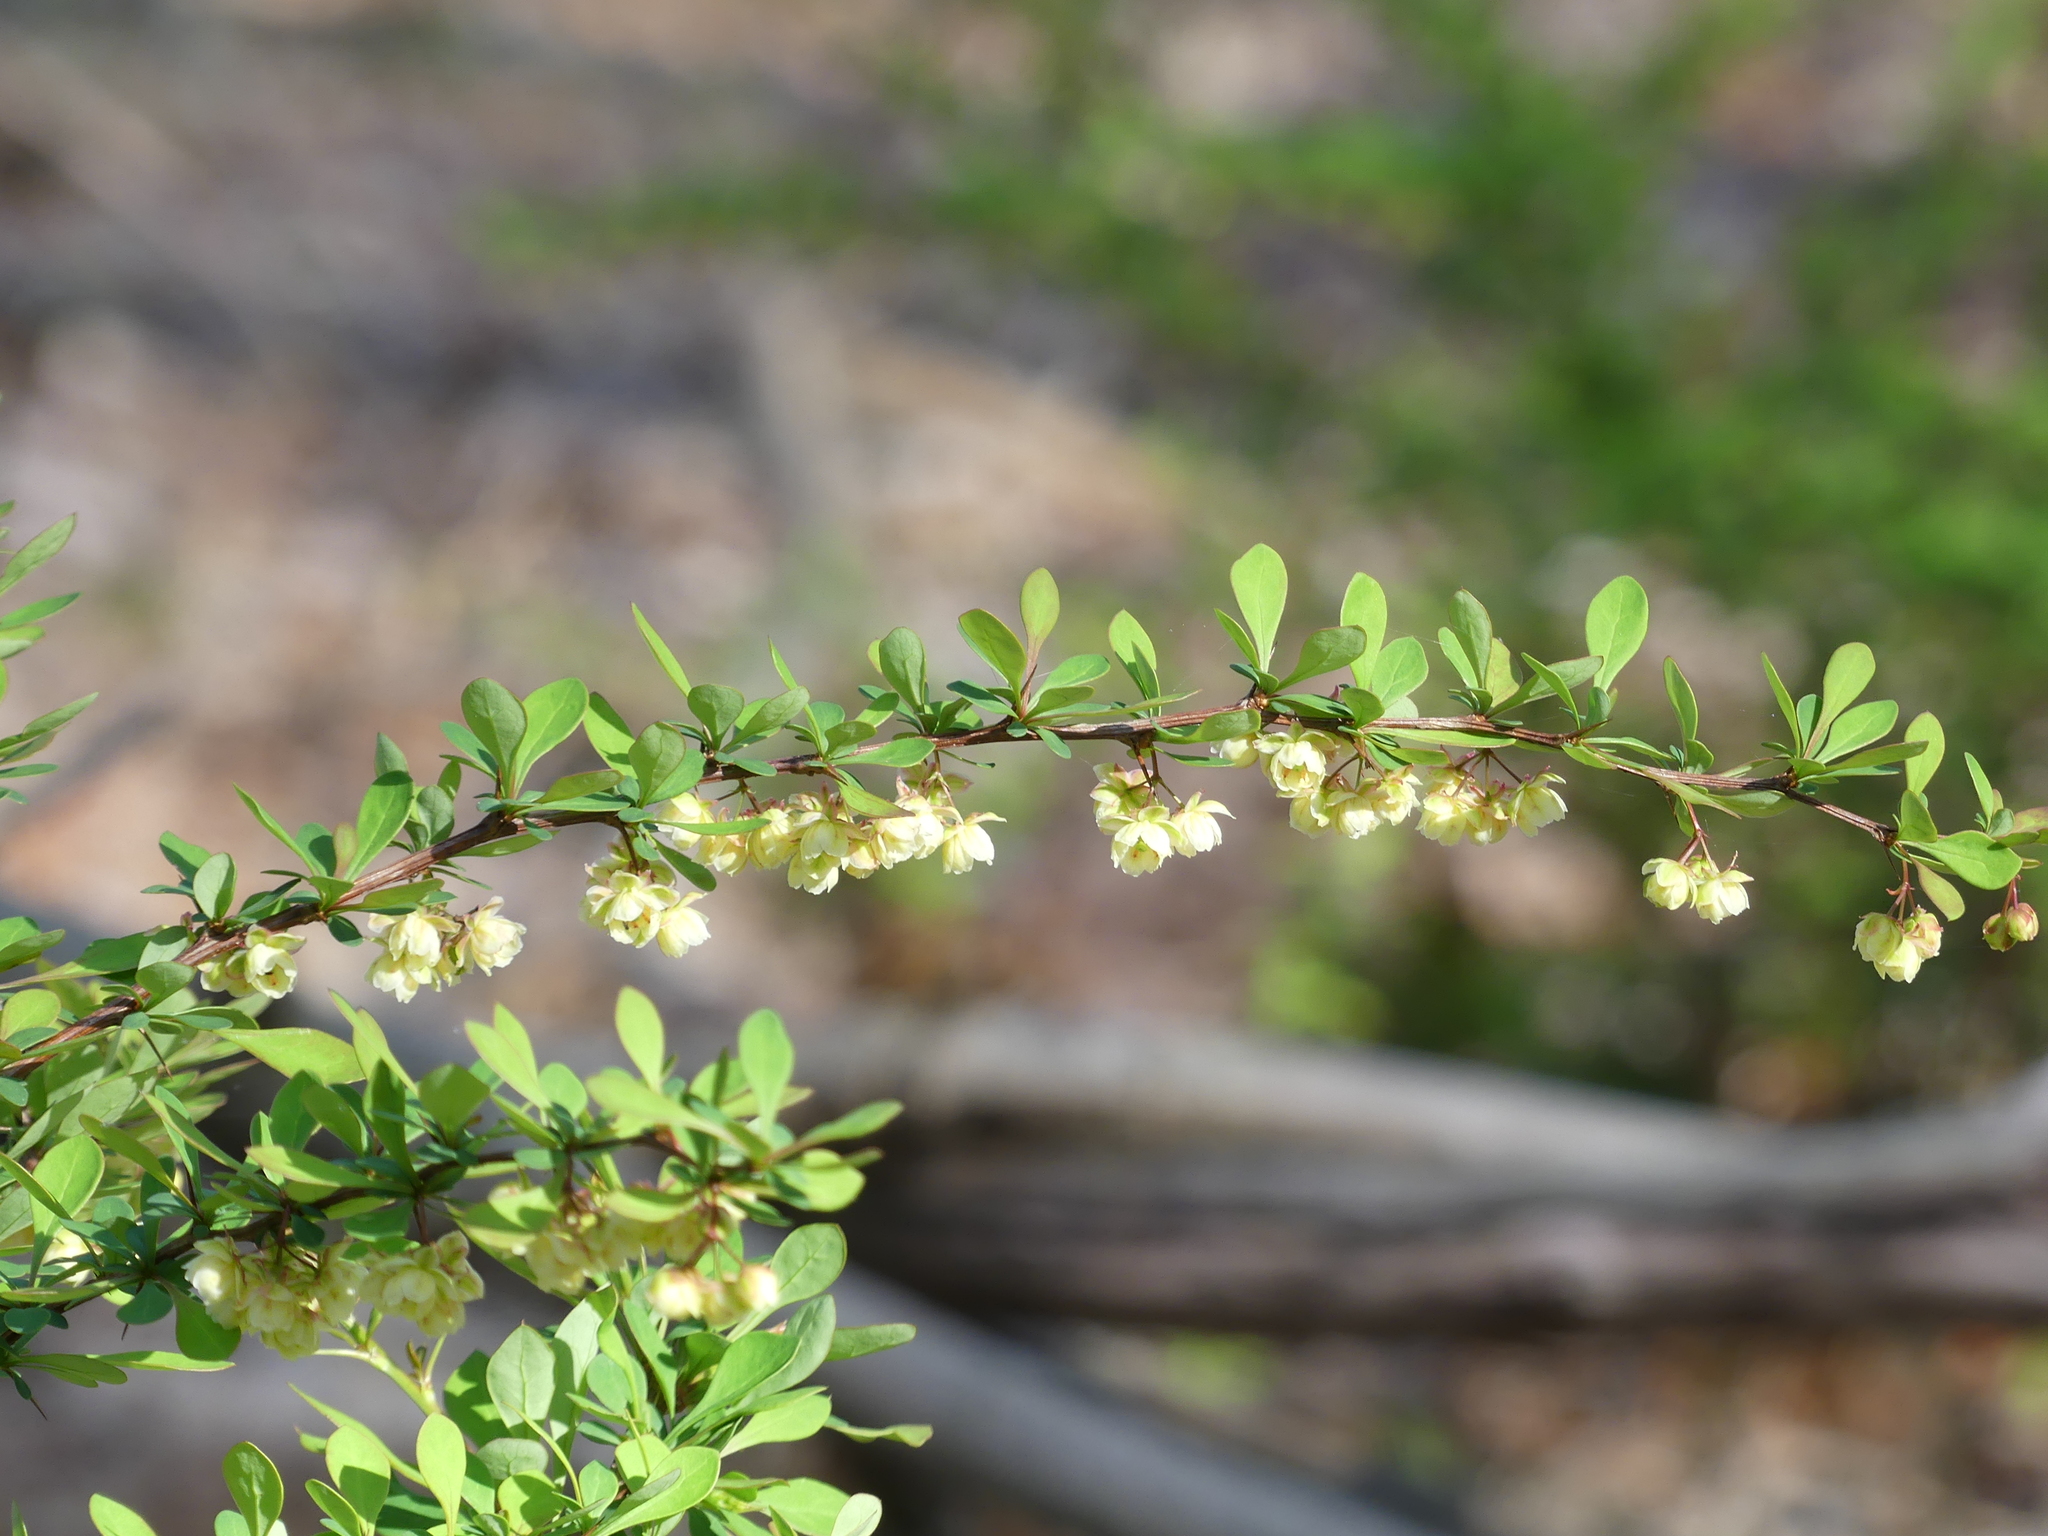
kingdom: Plantae
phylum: Tracheophyta
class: Magnoliopsida
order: Ranunculales
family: Berberidaceae
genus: Berberis
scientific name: Berberis thunbergii
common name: Japanese barberry
